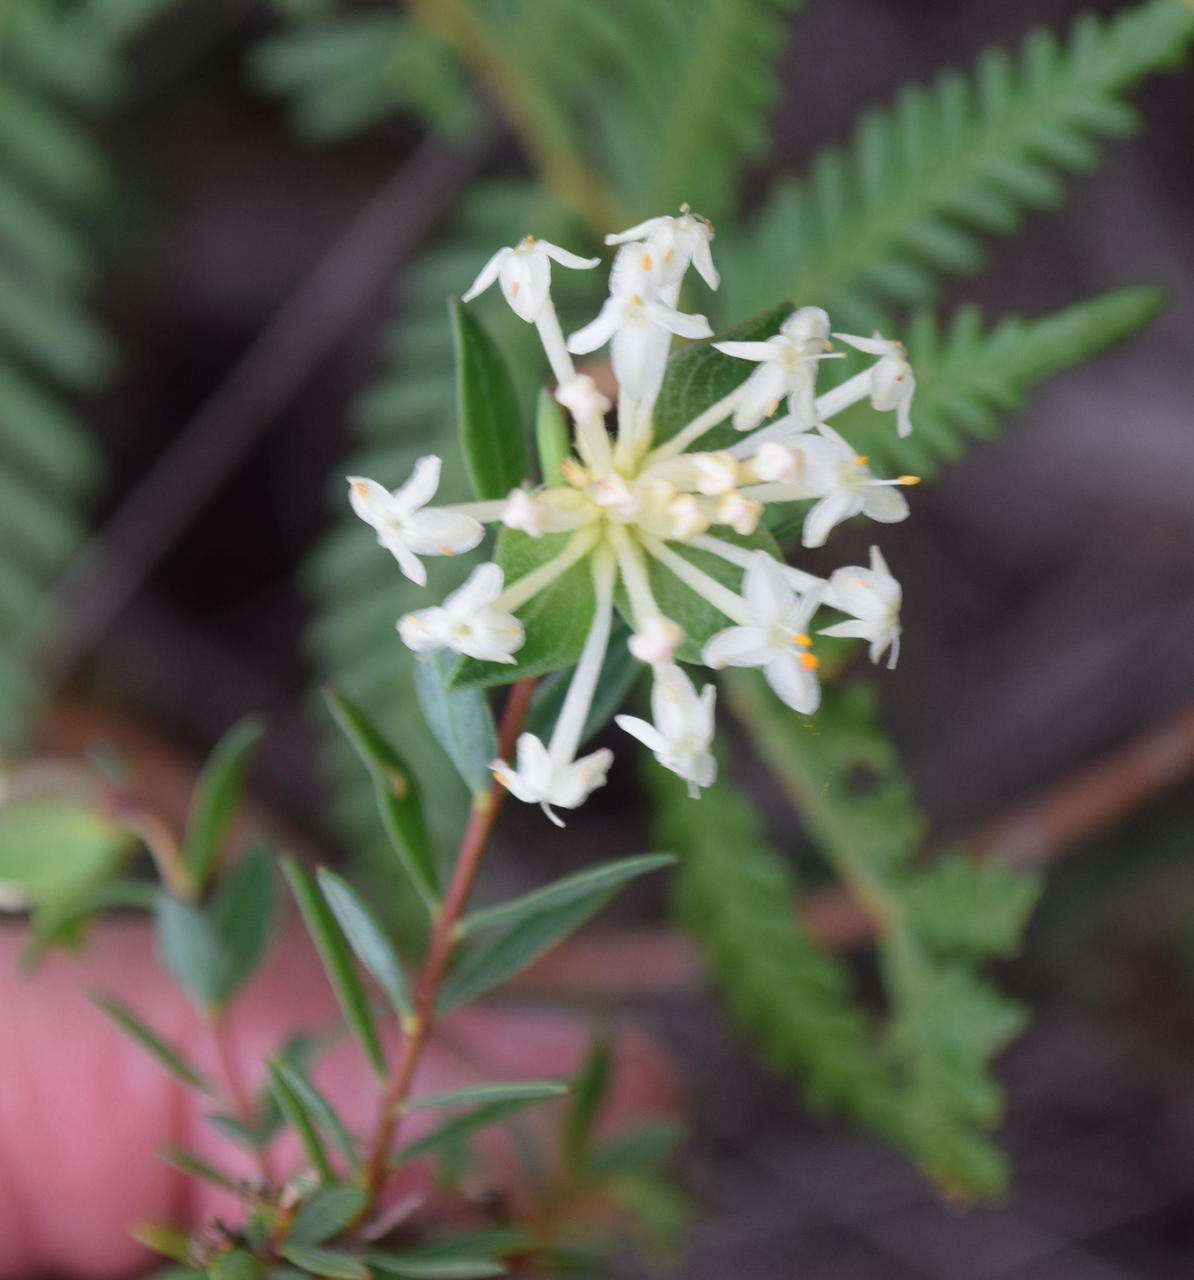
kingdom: Plantae
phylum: Tracheophyta
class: Magnoliopsida
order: Malvales
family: Thymelaeaceae
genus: Pimelea
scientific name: Pimelea linifolia
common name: Queen-of-the-bush
